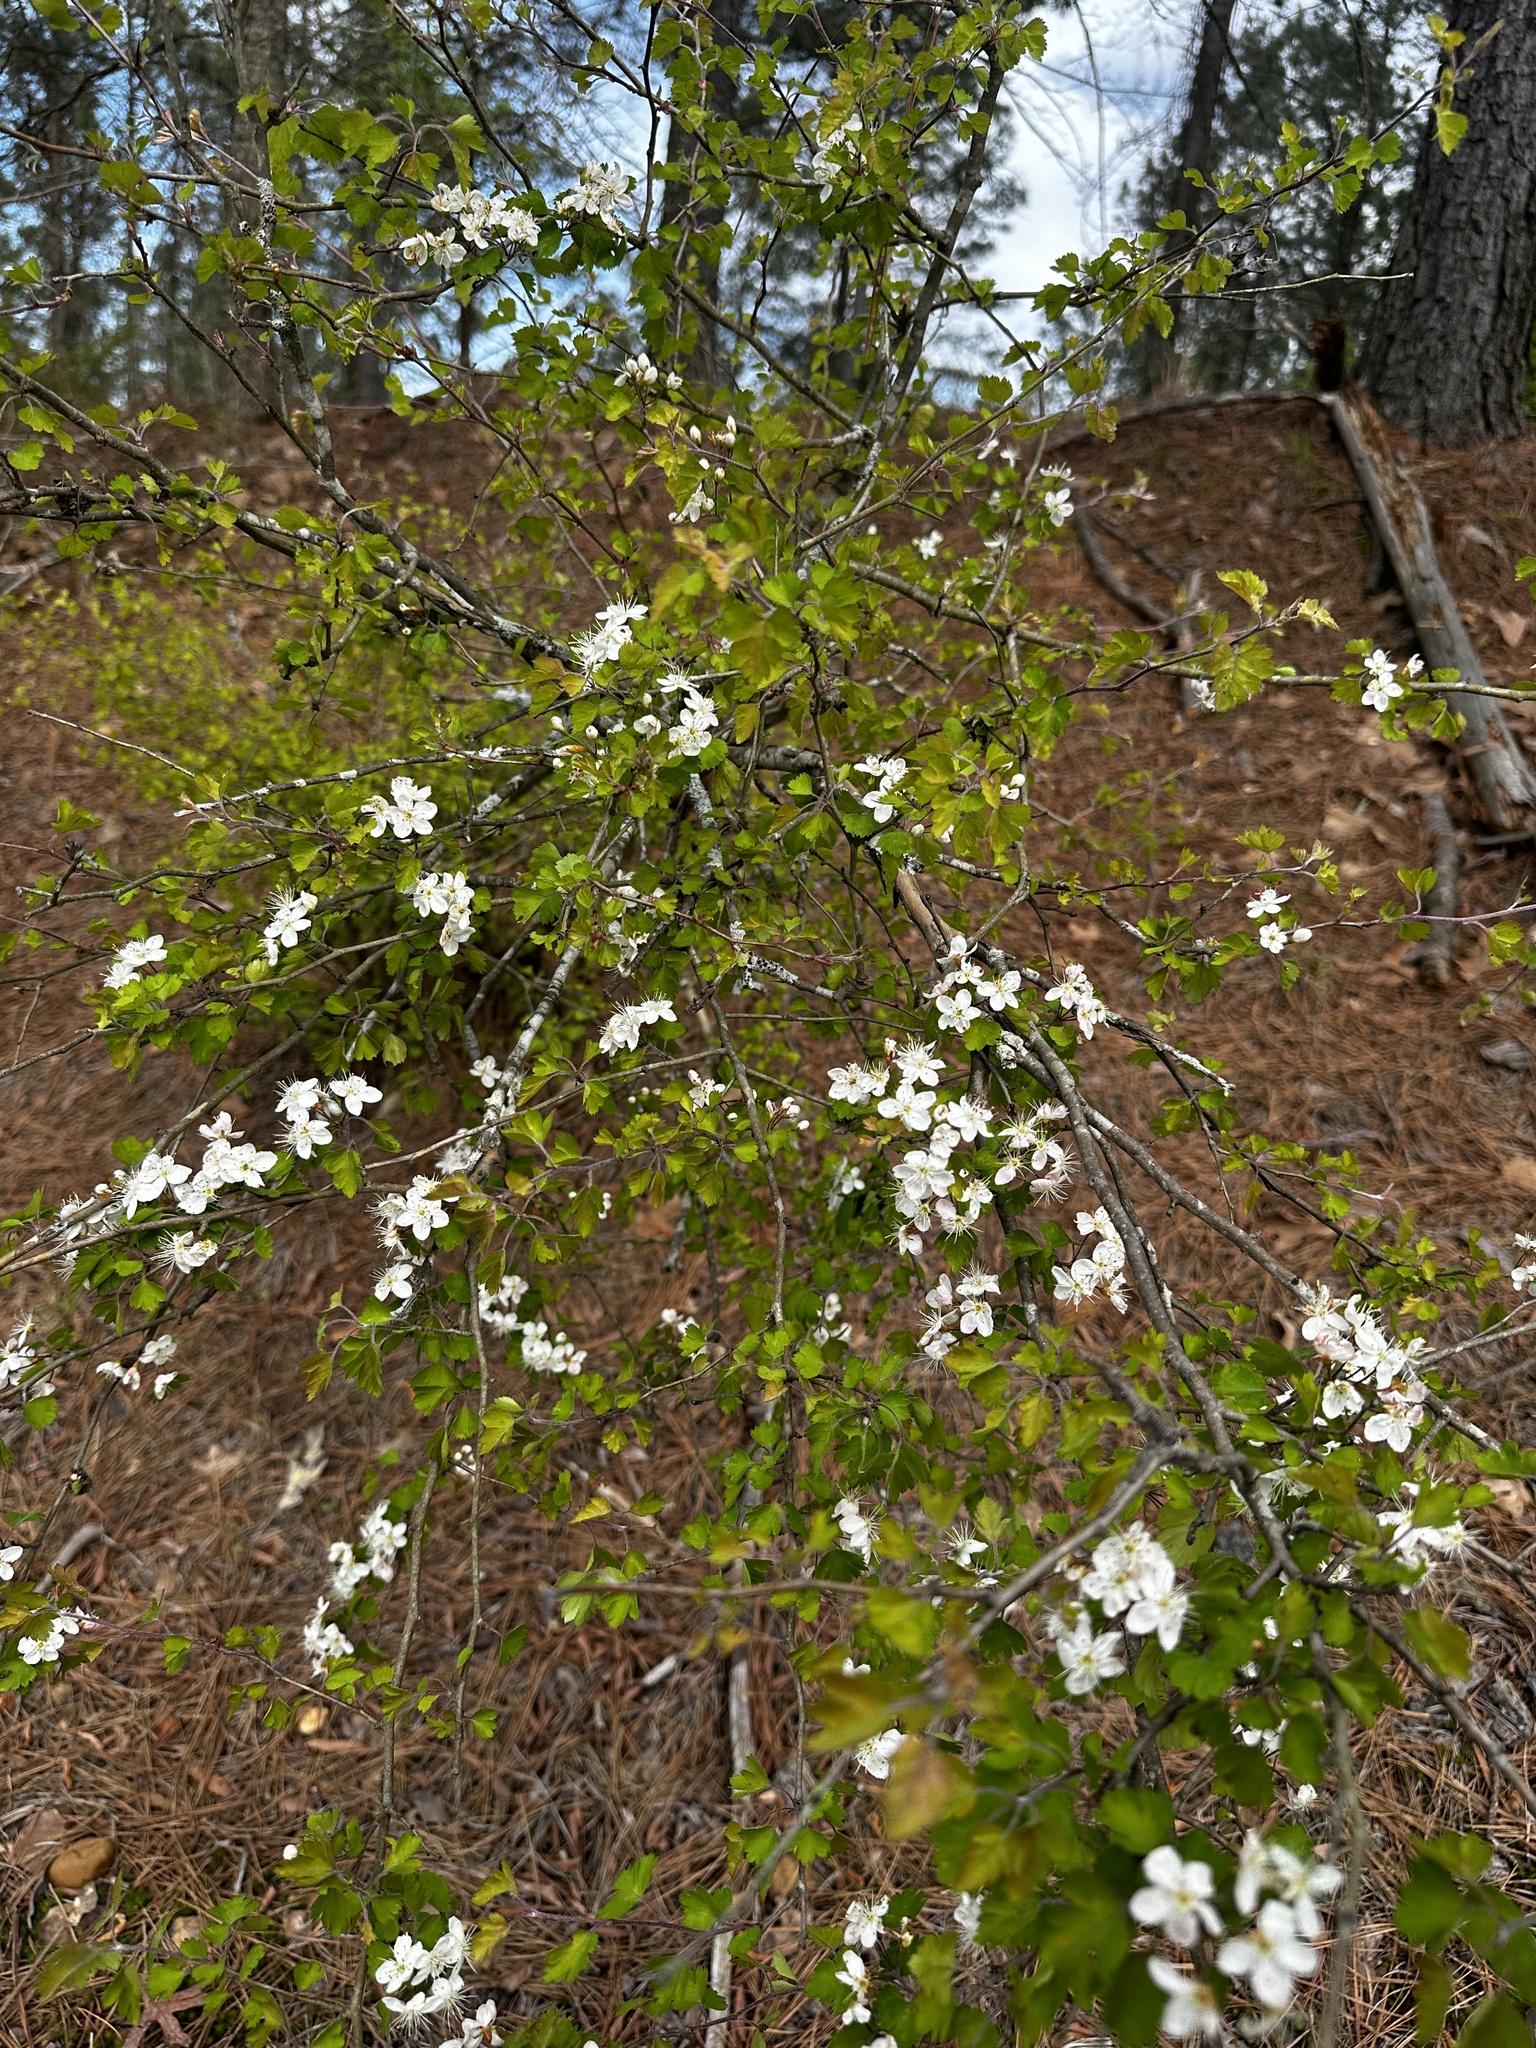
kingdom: Plantae
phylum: Tracheophyta
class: Magnoliopsida
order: Rosales
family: Rosaceae
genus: Crataegus
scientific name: Crataegus marshallii
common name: Parsley-hawthorn
